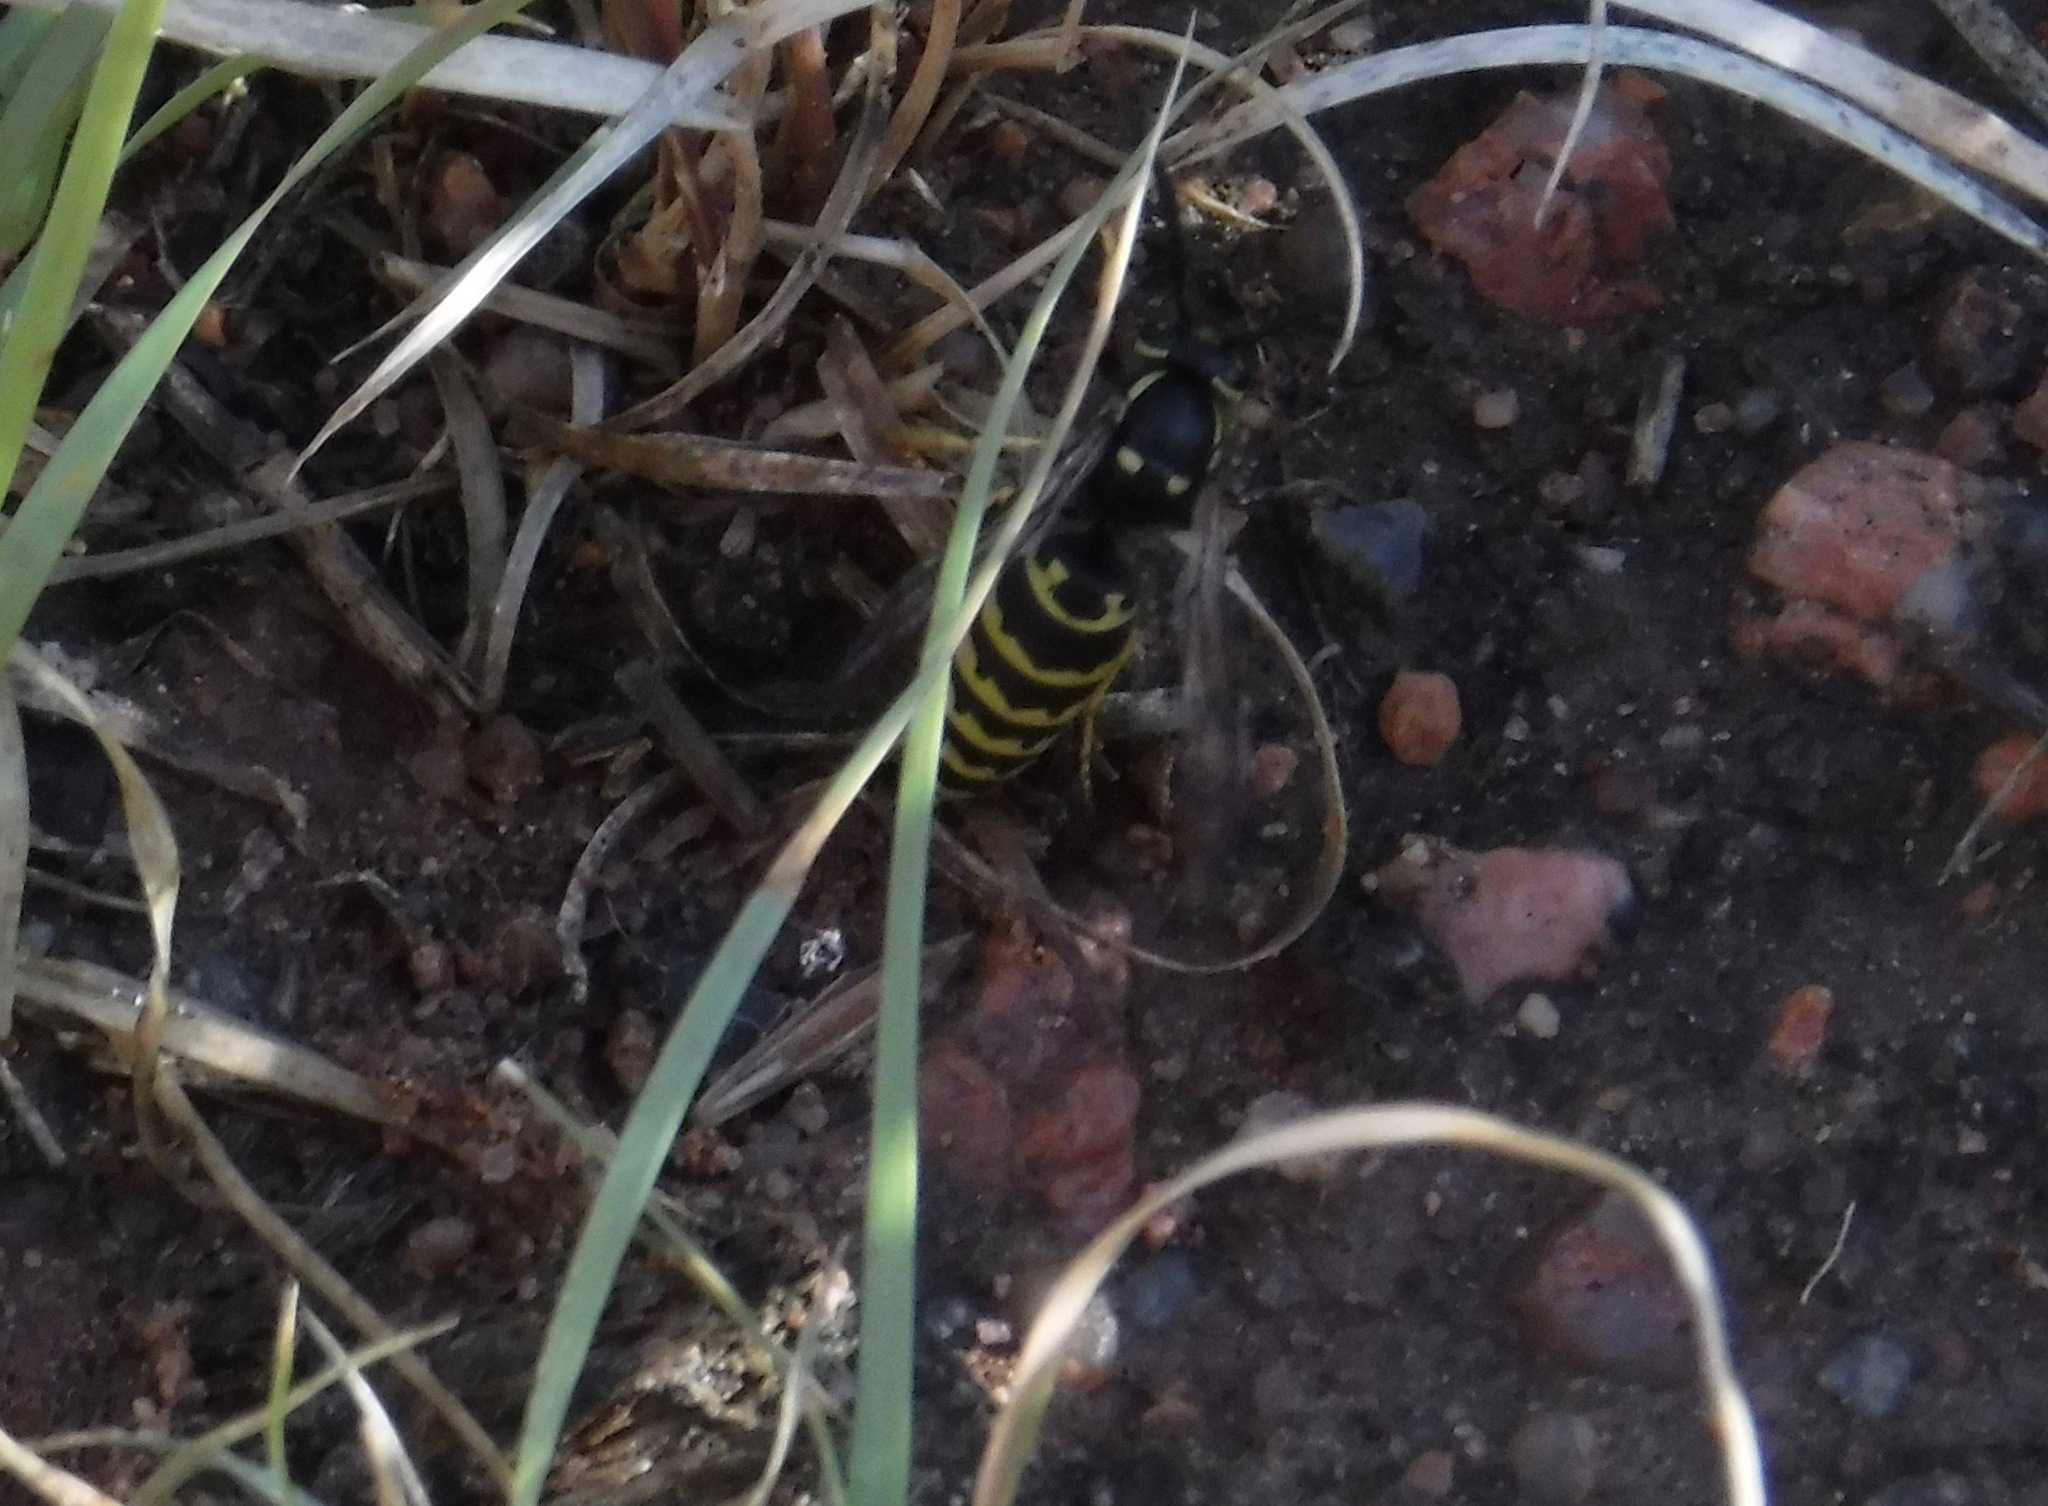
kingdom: Animalia
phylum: Arthropoda
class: Insecta
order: Hymenoptera
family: Vespidae
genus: Vespula
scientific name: Vespula atropilosa
